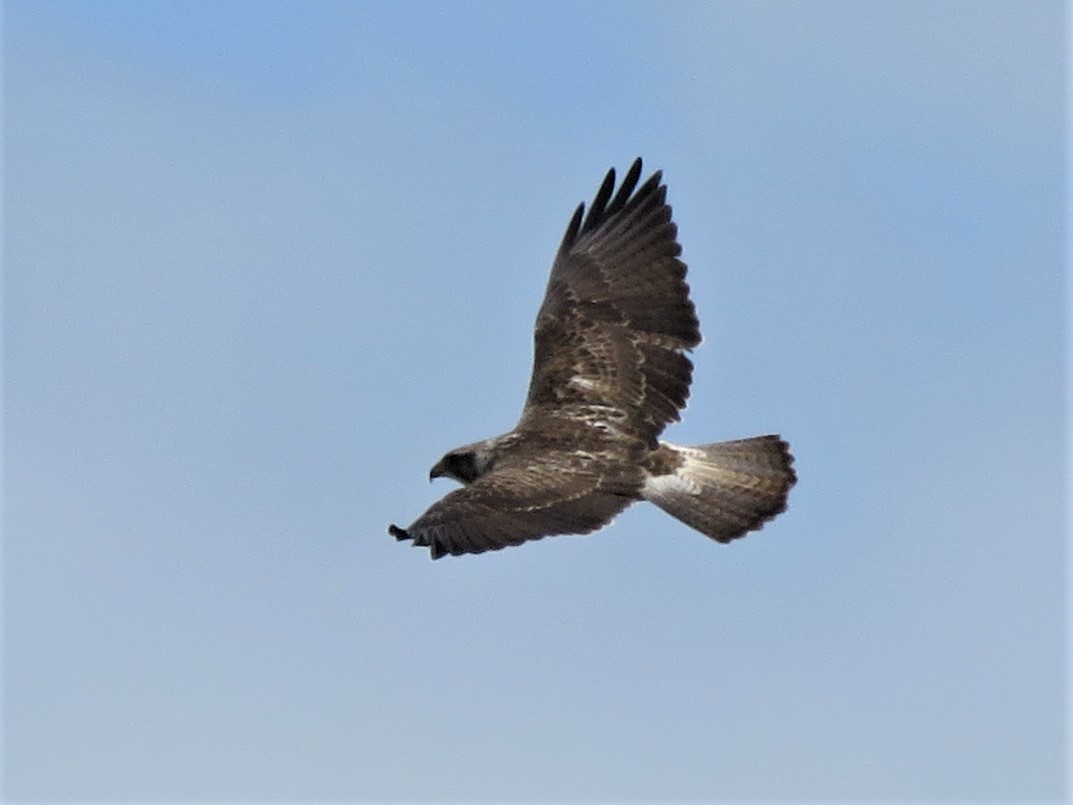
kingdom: Animalia
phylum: Chordata
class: Aves
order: Accipitriformes
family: Accipitridae
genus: Buteo
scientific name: Buteo swainsoni
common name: Swainson's hawk
